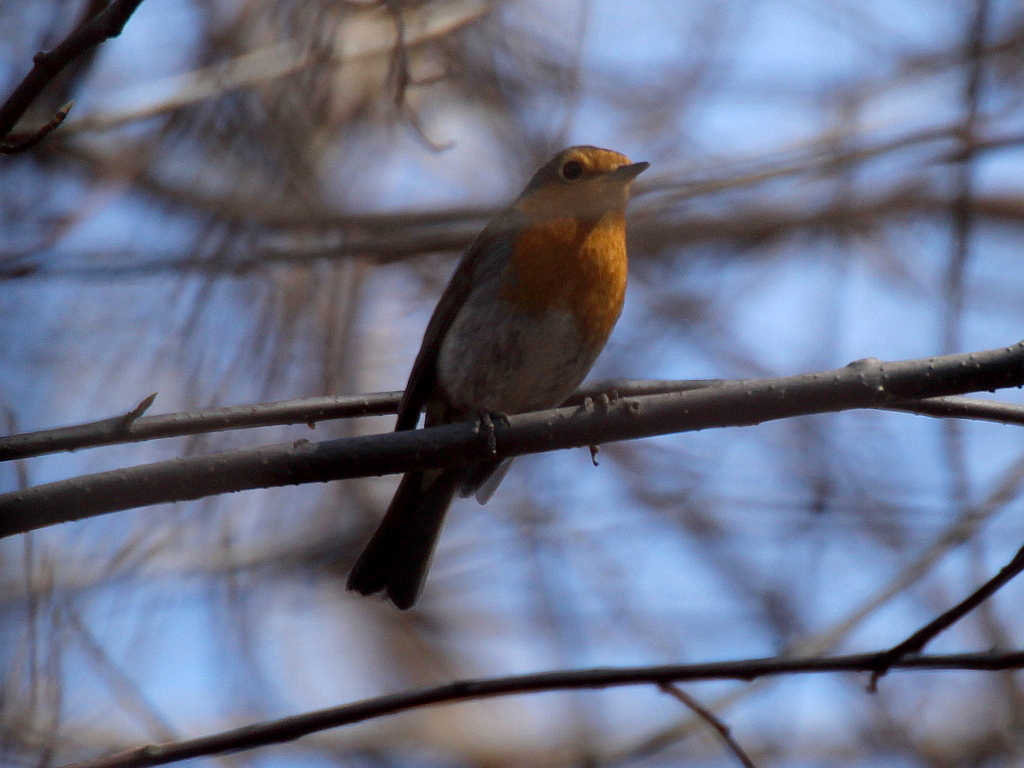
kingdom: Animalia
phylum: Chordata
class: Aves
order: Passeriformes
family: Muscicapidae
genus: Erithacus
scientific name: Erithacus rubecula
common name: European robin
